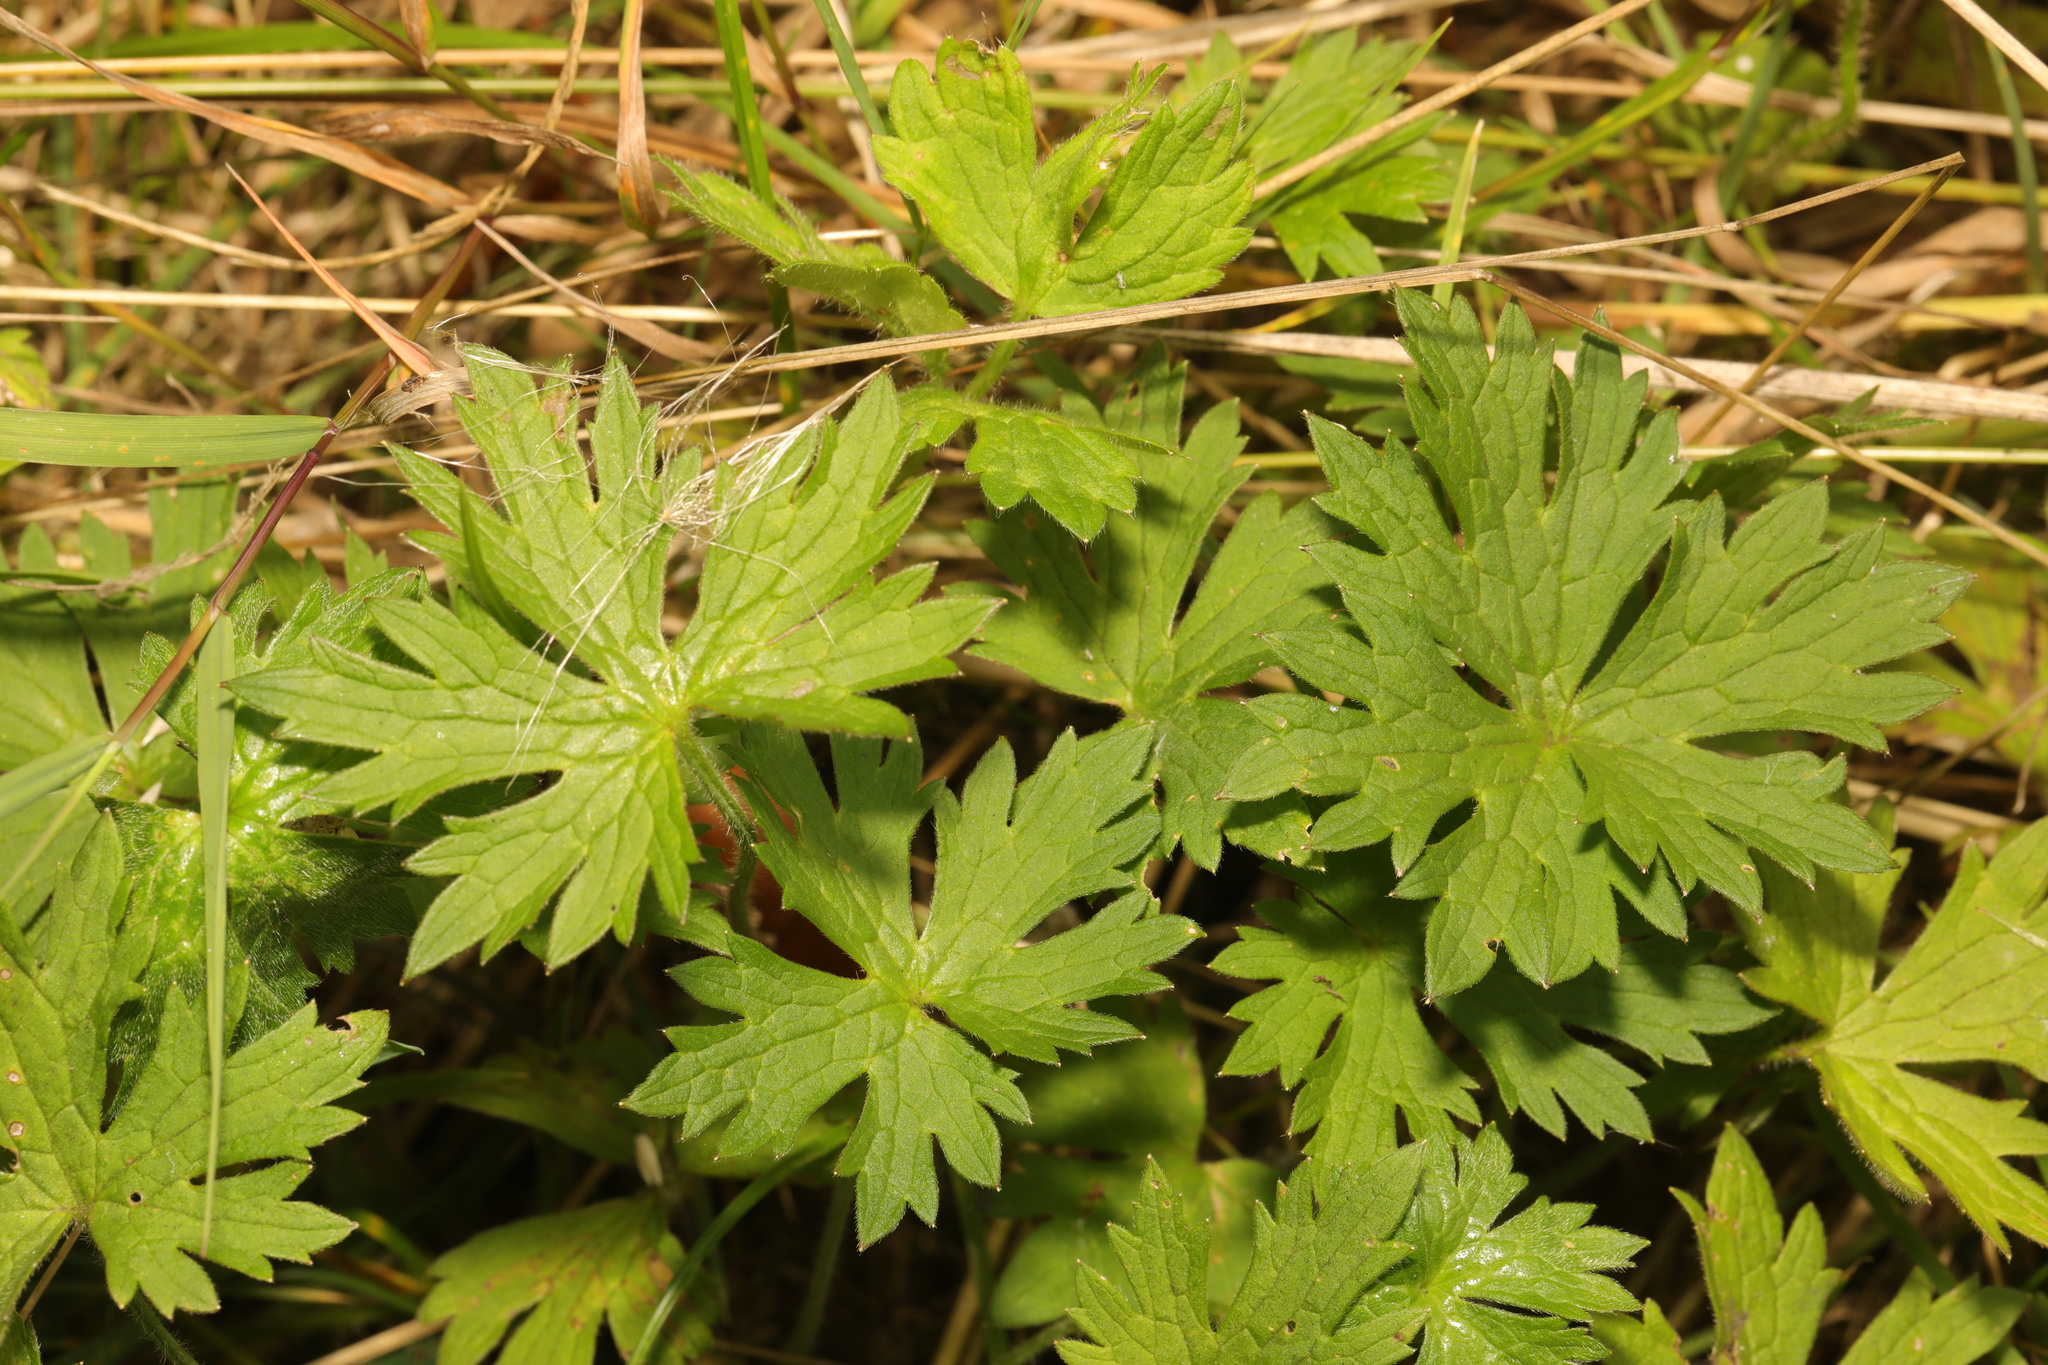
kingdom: Plantae
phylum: Tracheophyta
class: Magnoliopsida
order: Ranunculales
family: Ranunculaceae
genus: Ranunculus
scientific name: Ranunculus acris
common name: Meadow buttercup
